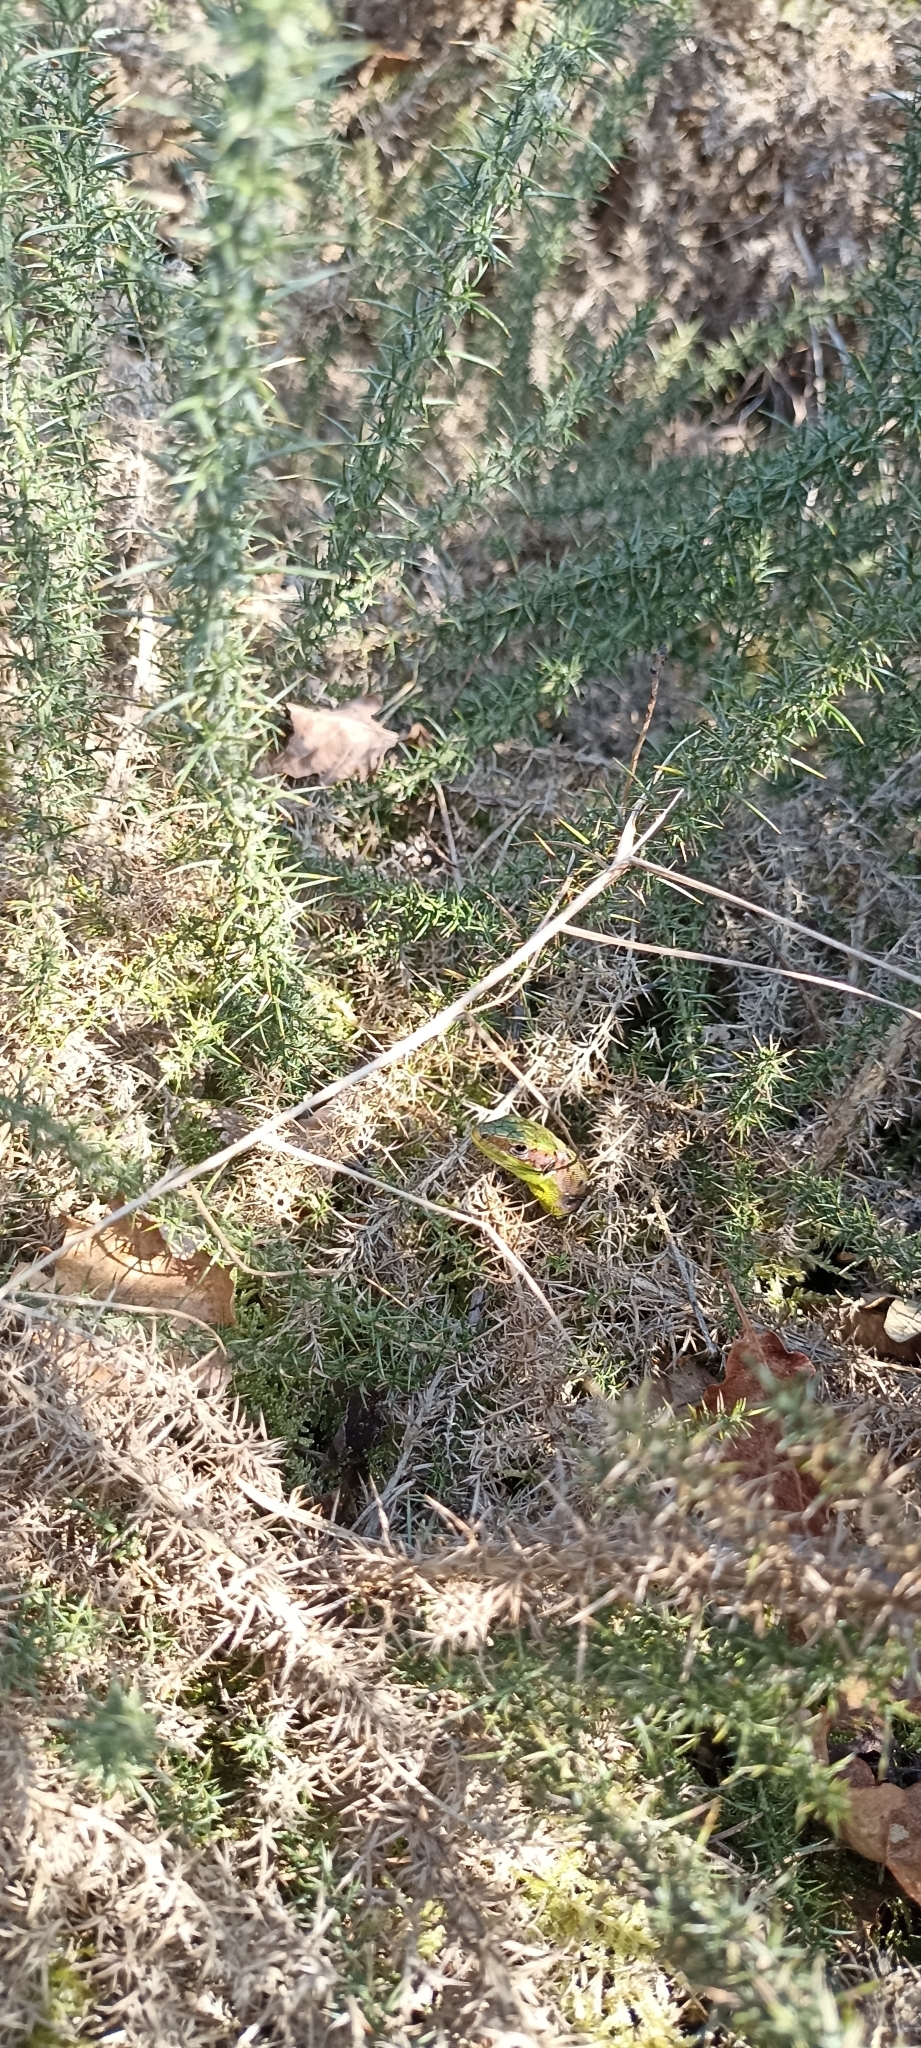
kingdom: Animalia
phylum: Chordata
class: Squamata
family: Lacertidae
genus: Lacerta
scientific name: Lacerta bilineata
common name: Western green lizard
